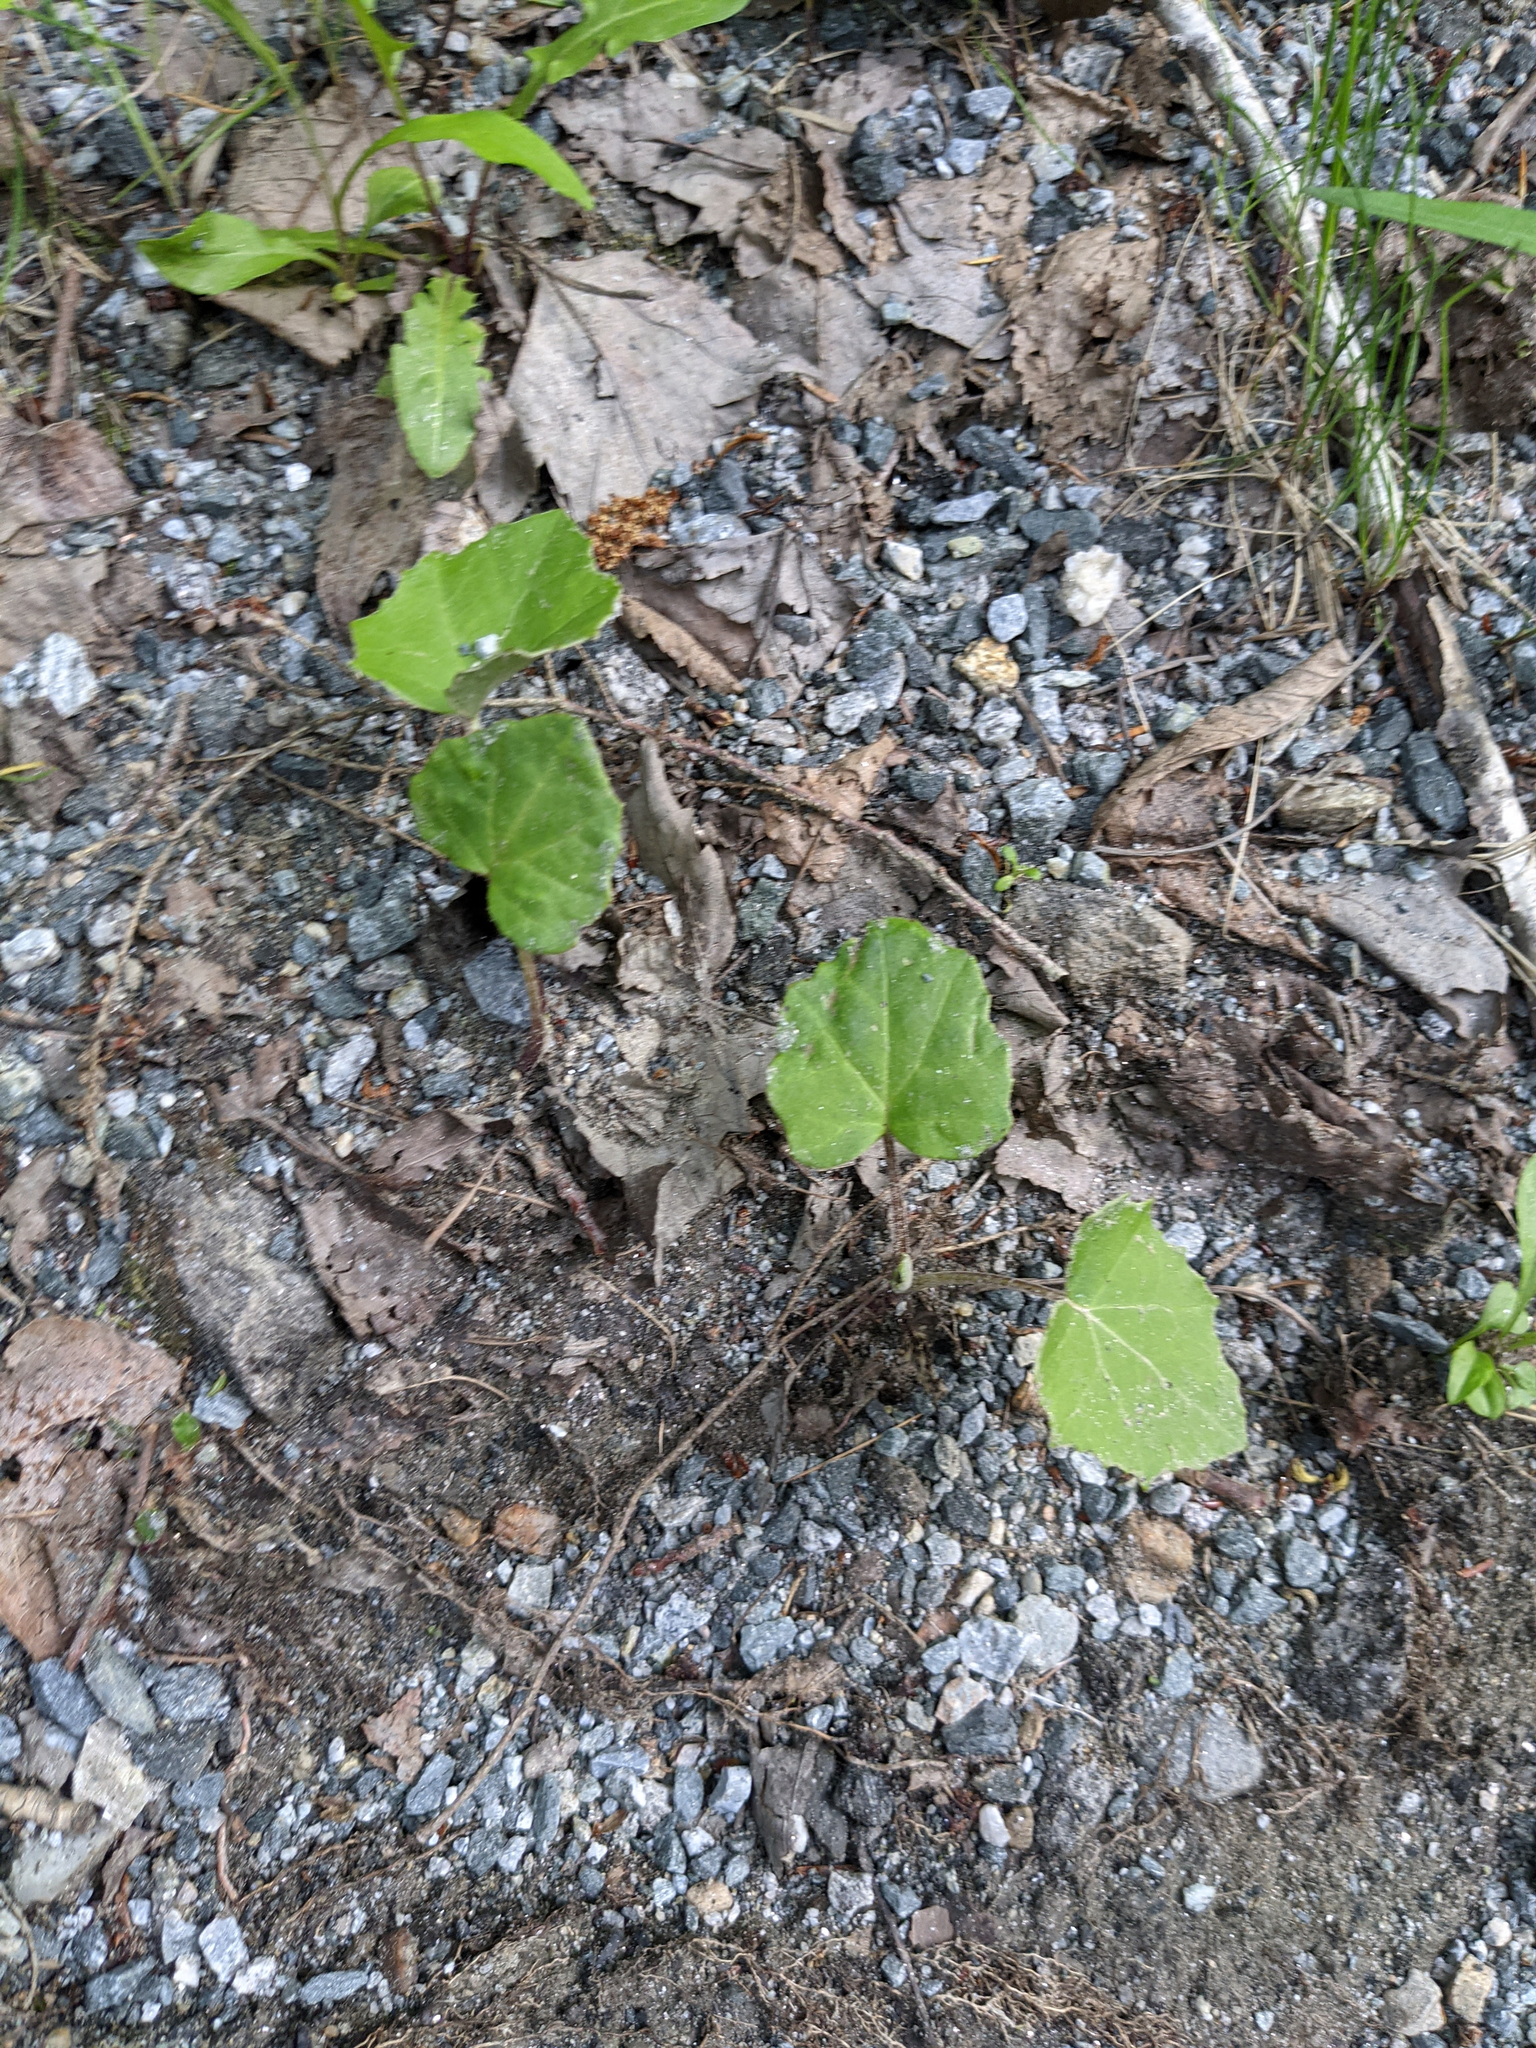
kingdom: Plantae
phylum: Tracheophyta
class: Magnoliopsida
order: Asterales
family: Asteraceae
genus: Tussilago
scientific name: Tussilago farfara
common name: Coltsfoot
